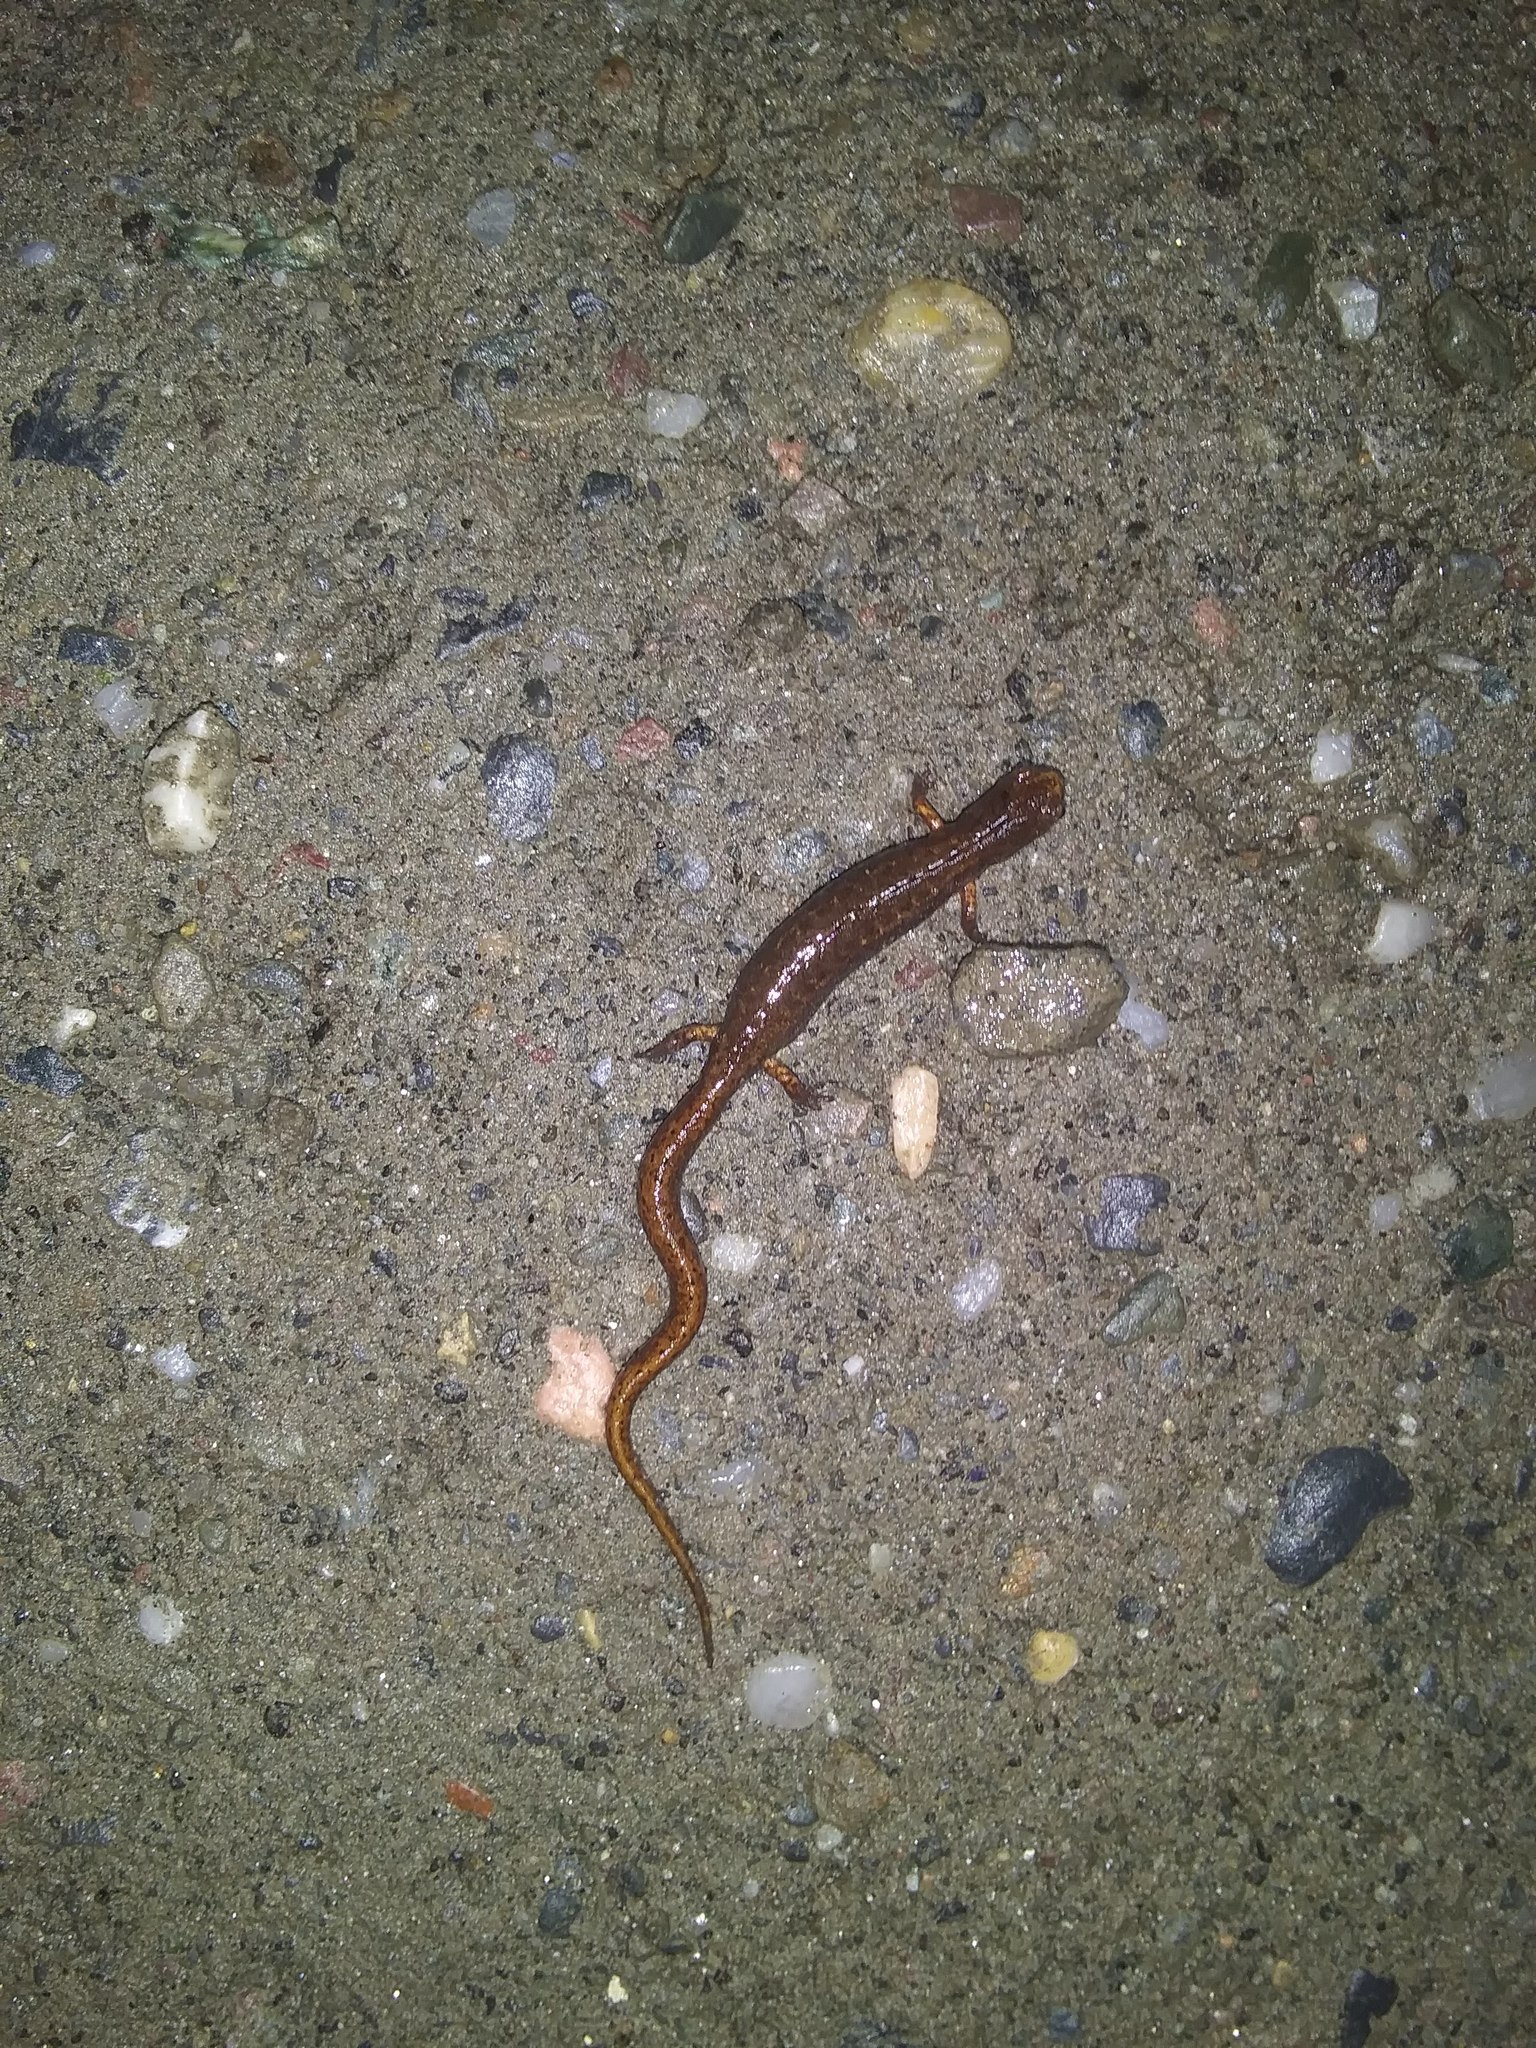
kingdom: Animalia
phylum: Chordata
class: Amphibia
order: Caudata
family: Plethodontidae
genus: Hemidactylium
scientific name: Hemidactylium scutatum
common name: Four-toed salamander
